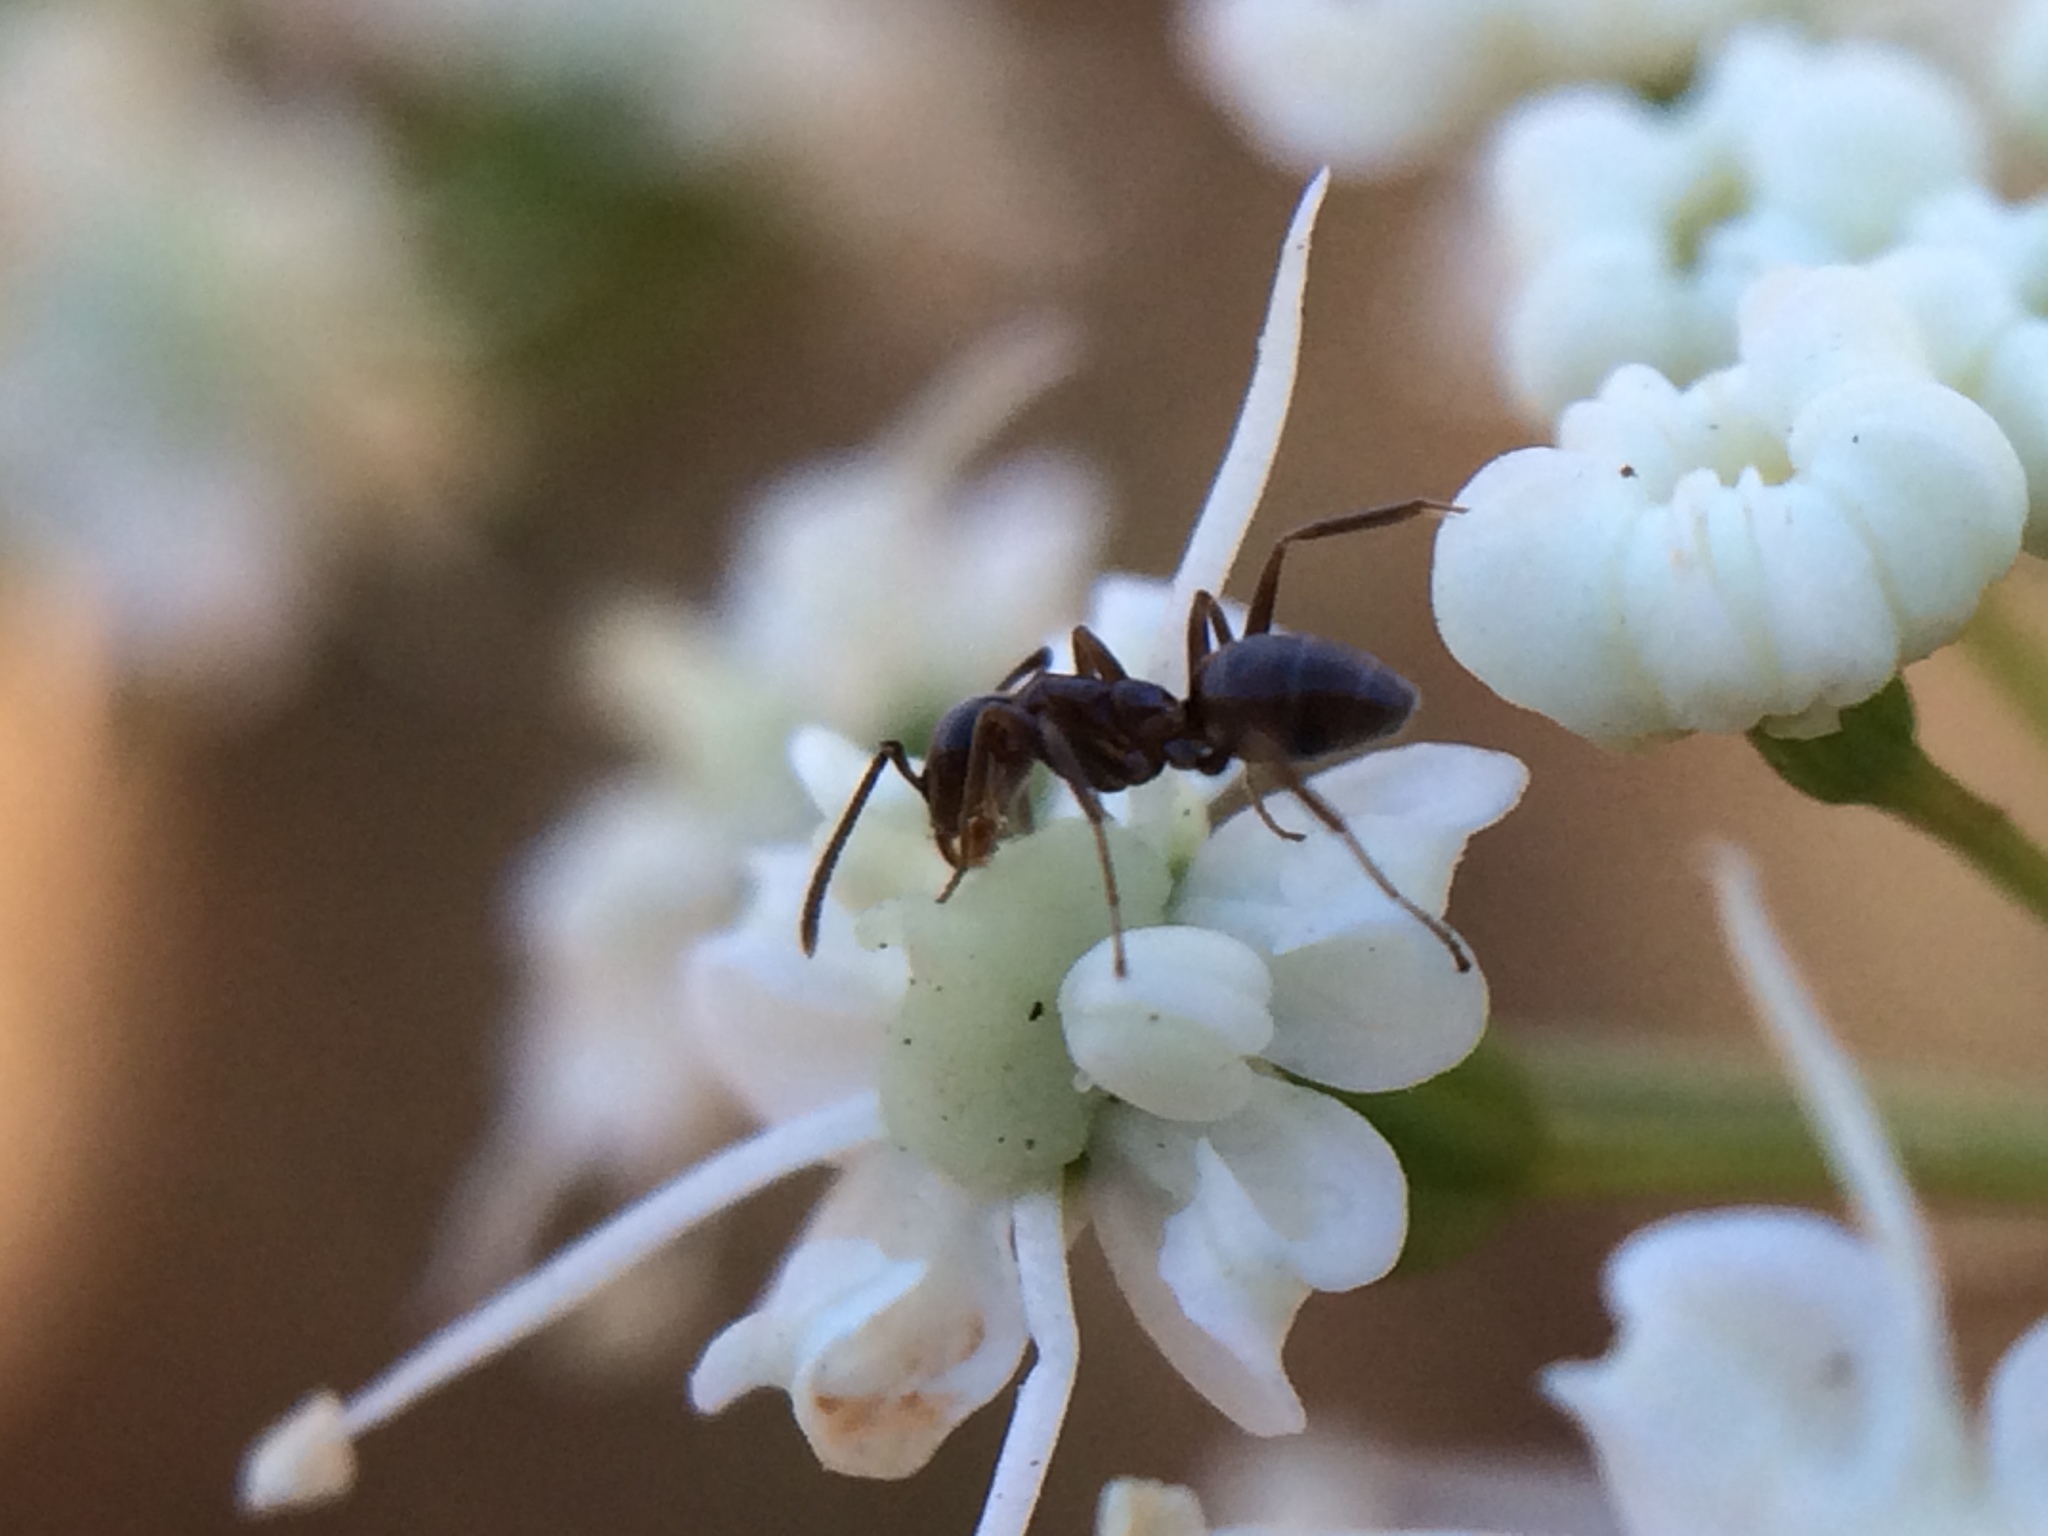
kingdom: Animalia
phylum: Arthropoda
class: Insecta
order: Hymenoptera
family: Formicidae
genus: Linepithema
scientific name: Linepithema humile
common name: Argentine ant
